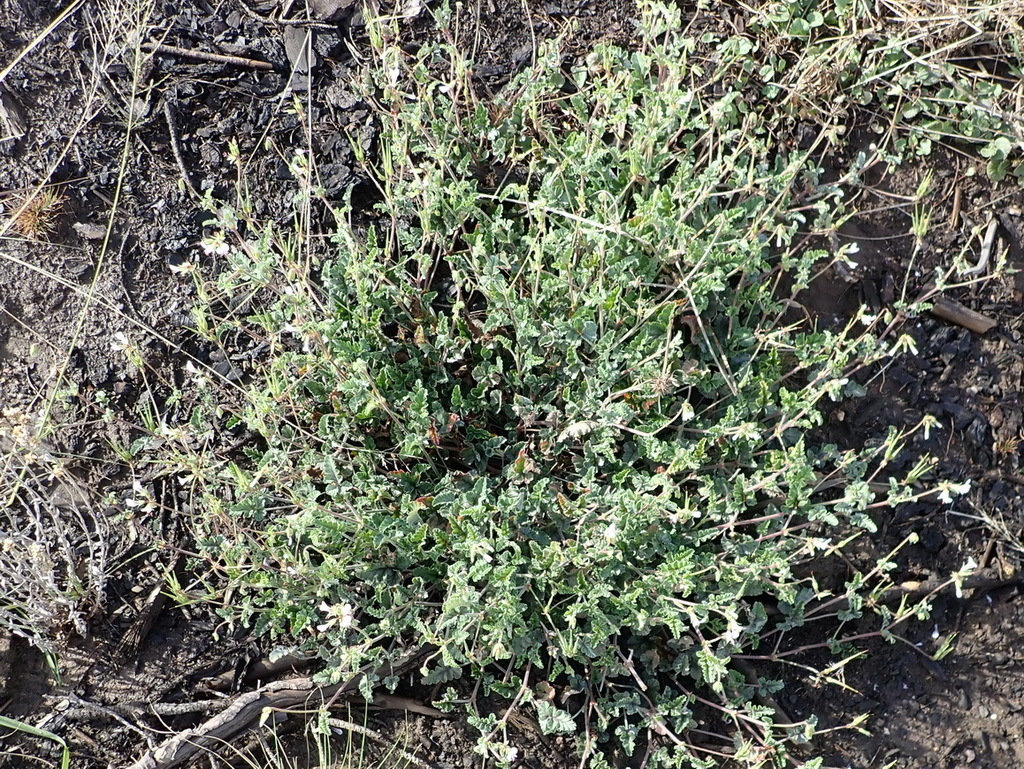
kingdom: Plantae
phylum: Tracheophyta
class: Magnoliopsida
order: Geraniales
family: Geraniaceae
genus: Pelargonium
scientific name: Pelargonium candicans
